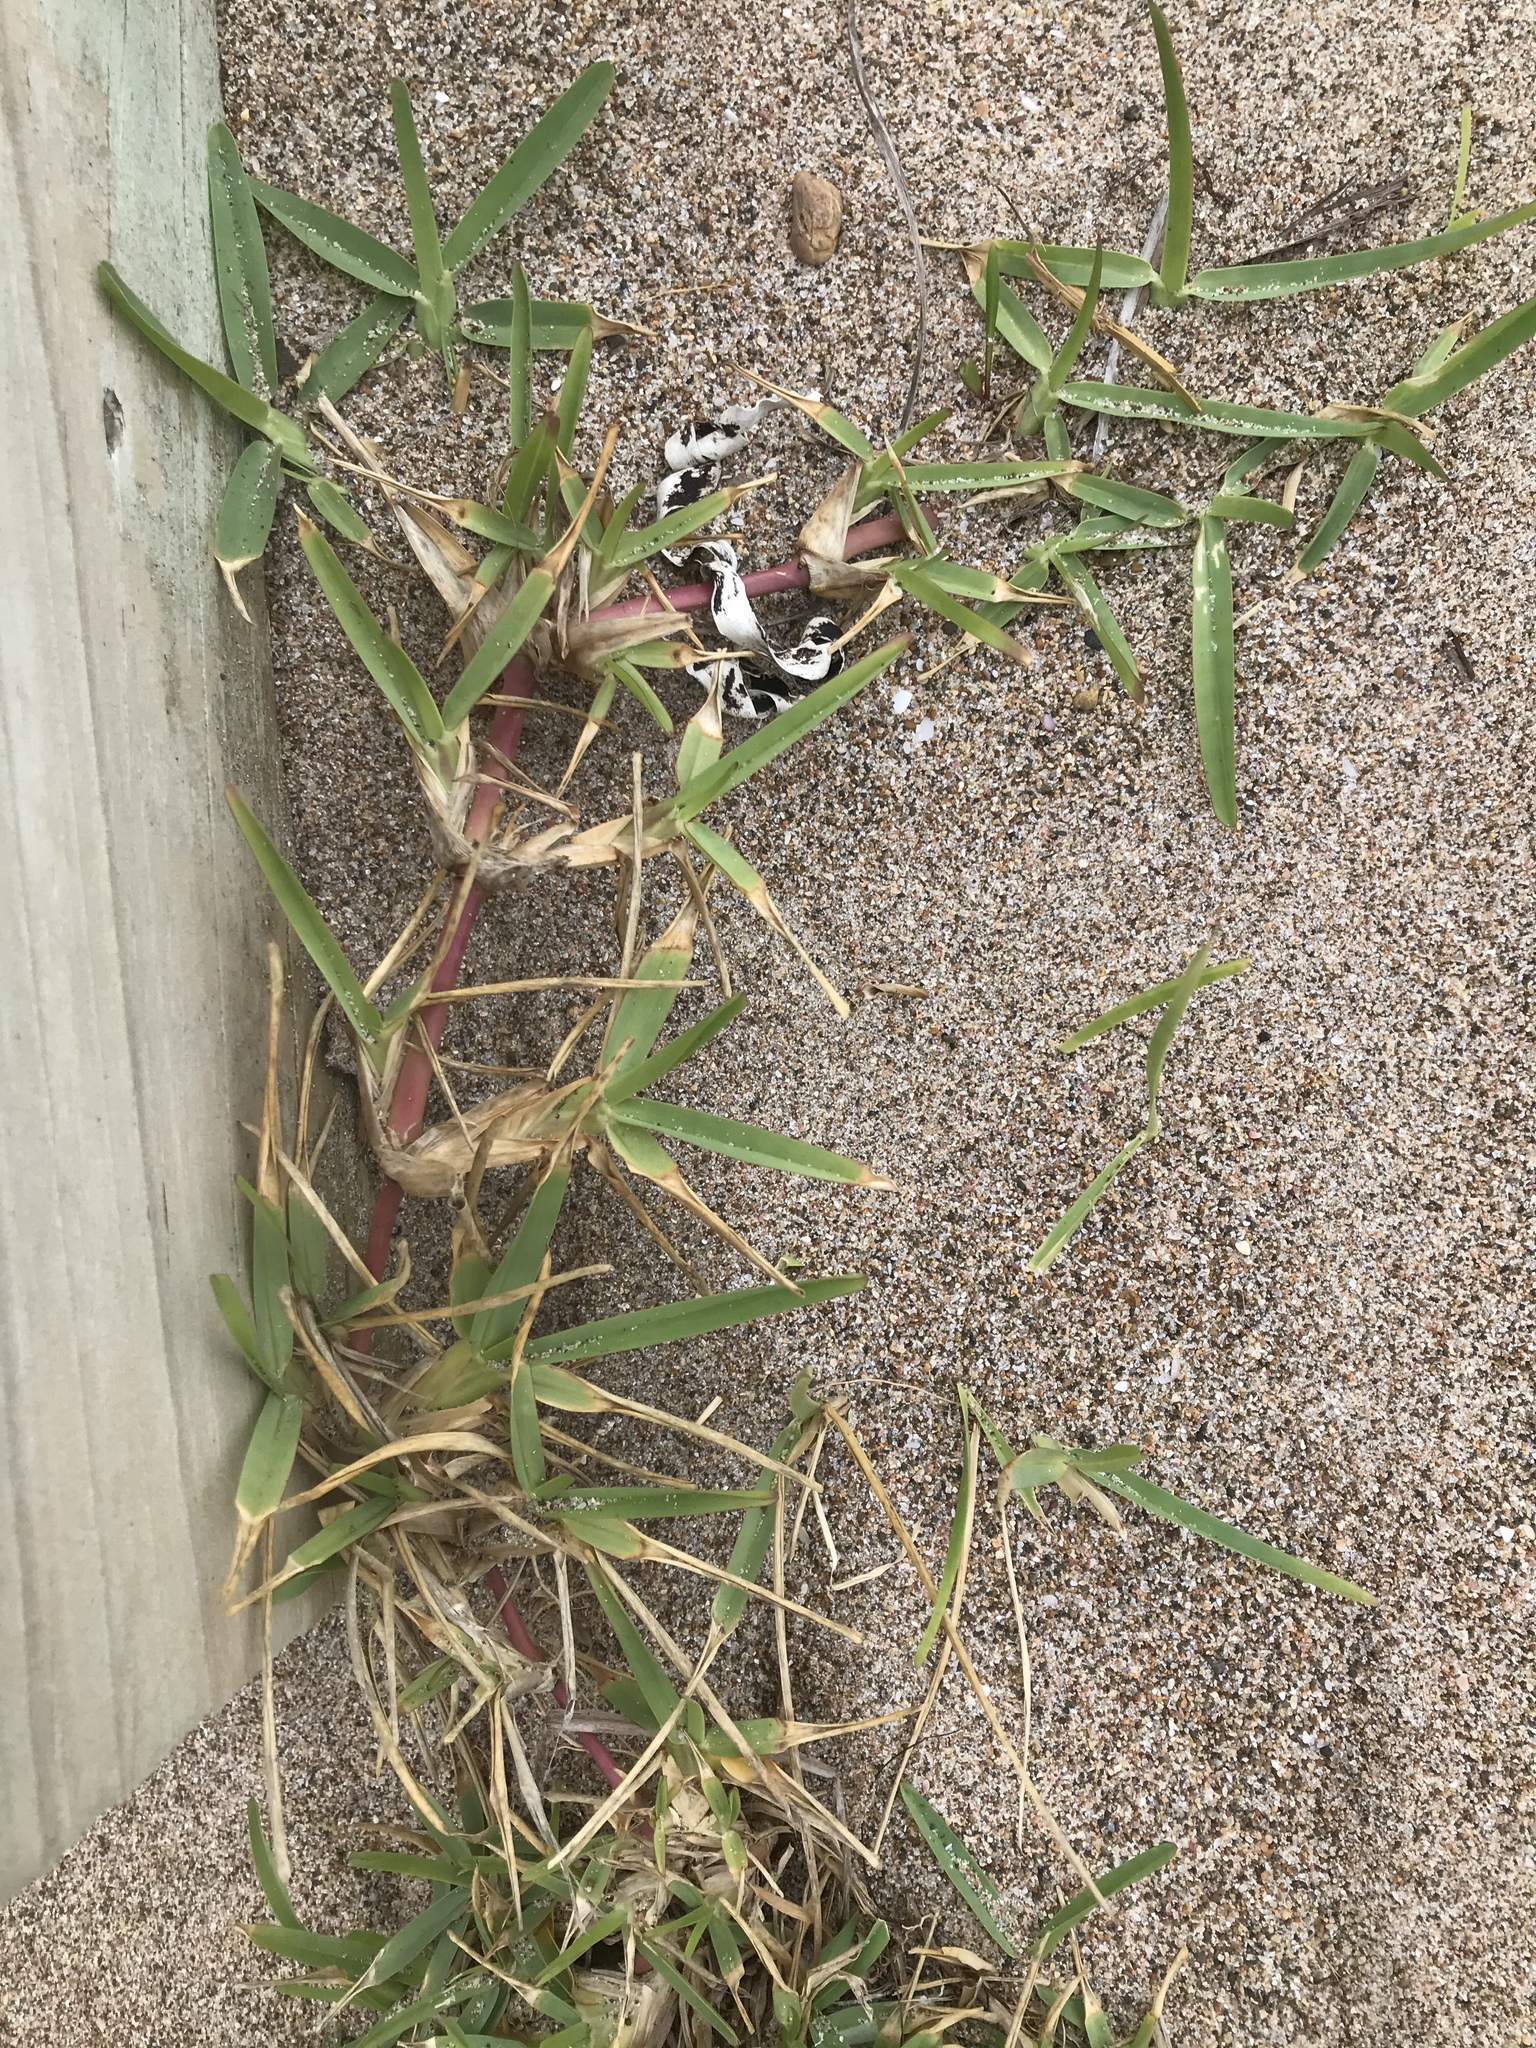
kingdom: Plantae
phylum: Tracheophyta
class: Liliopsida
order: Poales
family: Poaceae
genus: Stenotaphrum
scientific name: Stenotaphrum secundatum
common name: St. augustine grass
